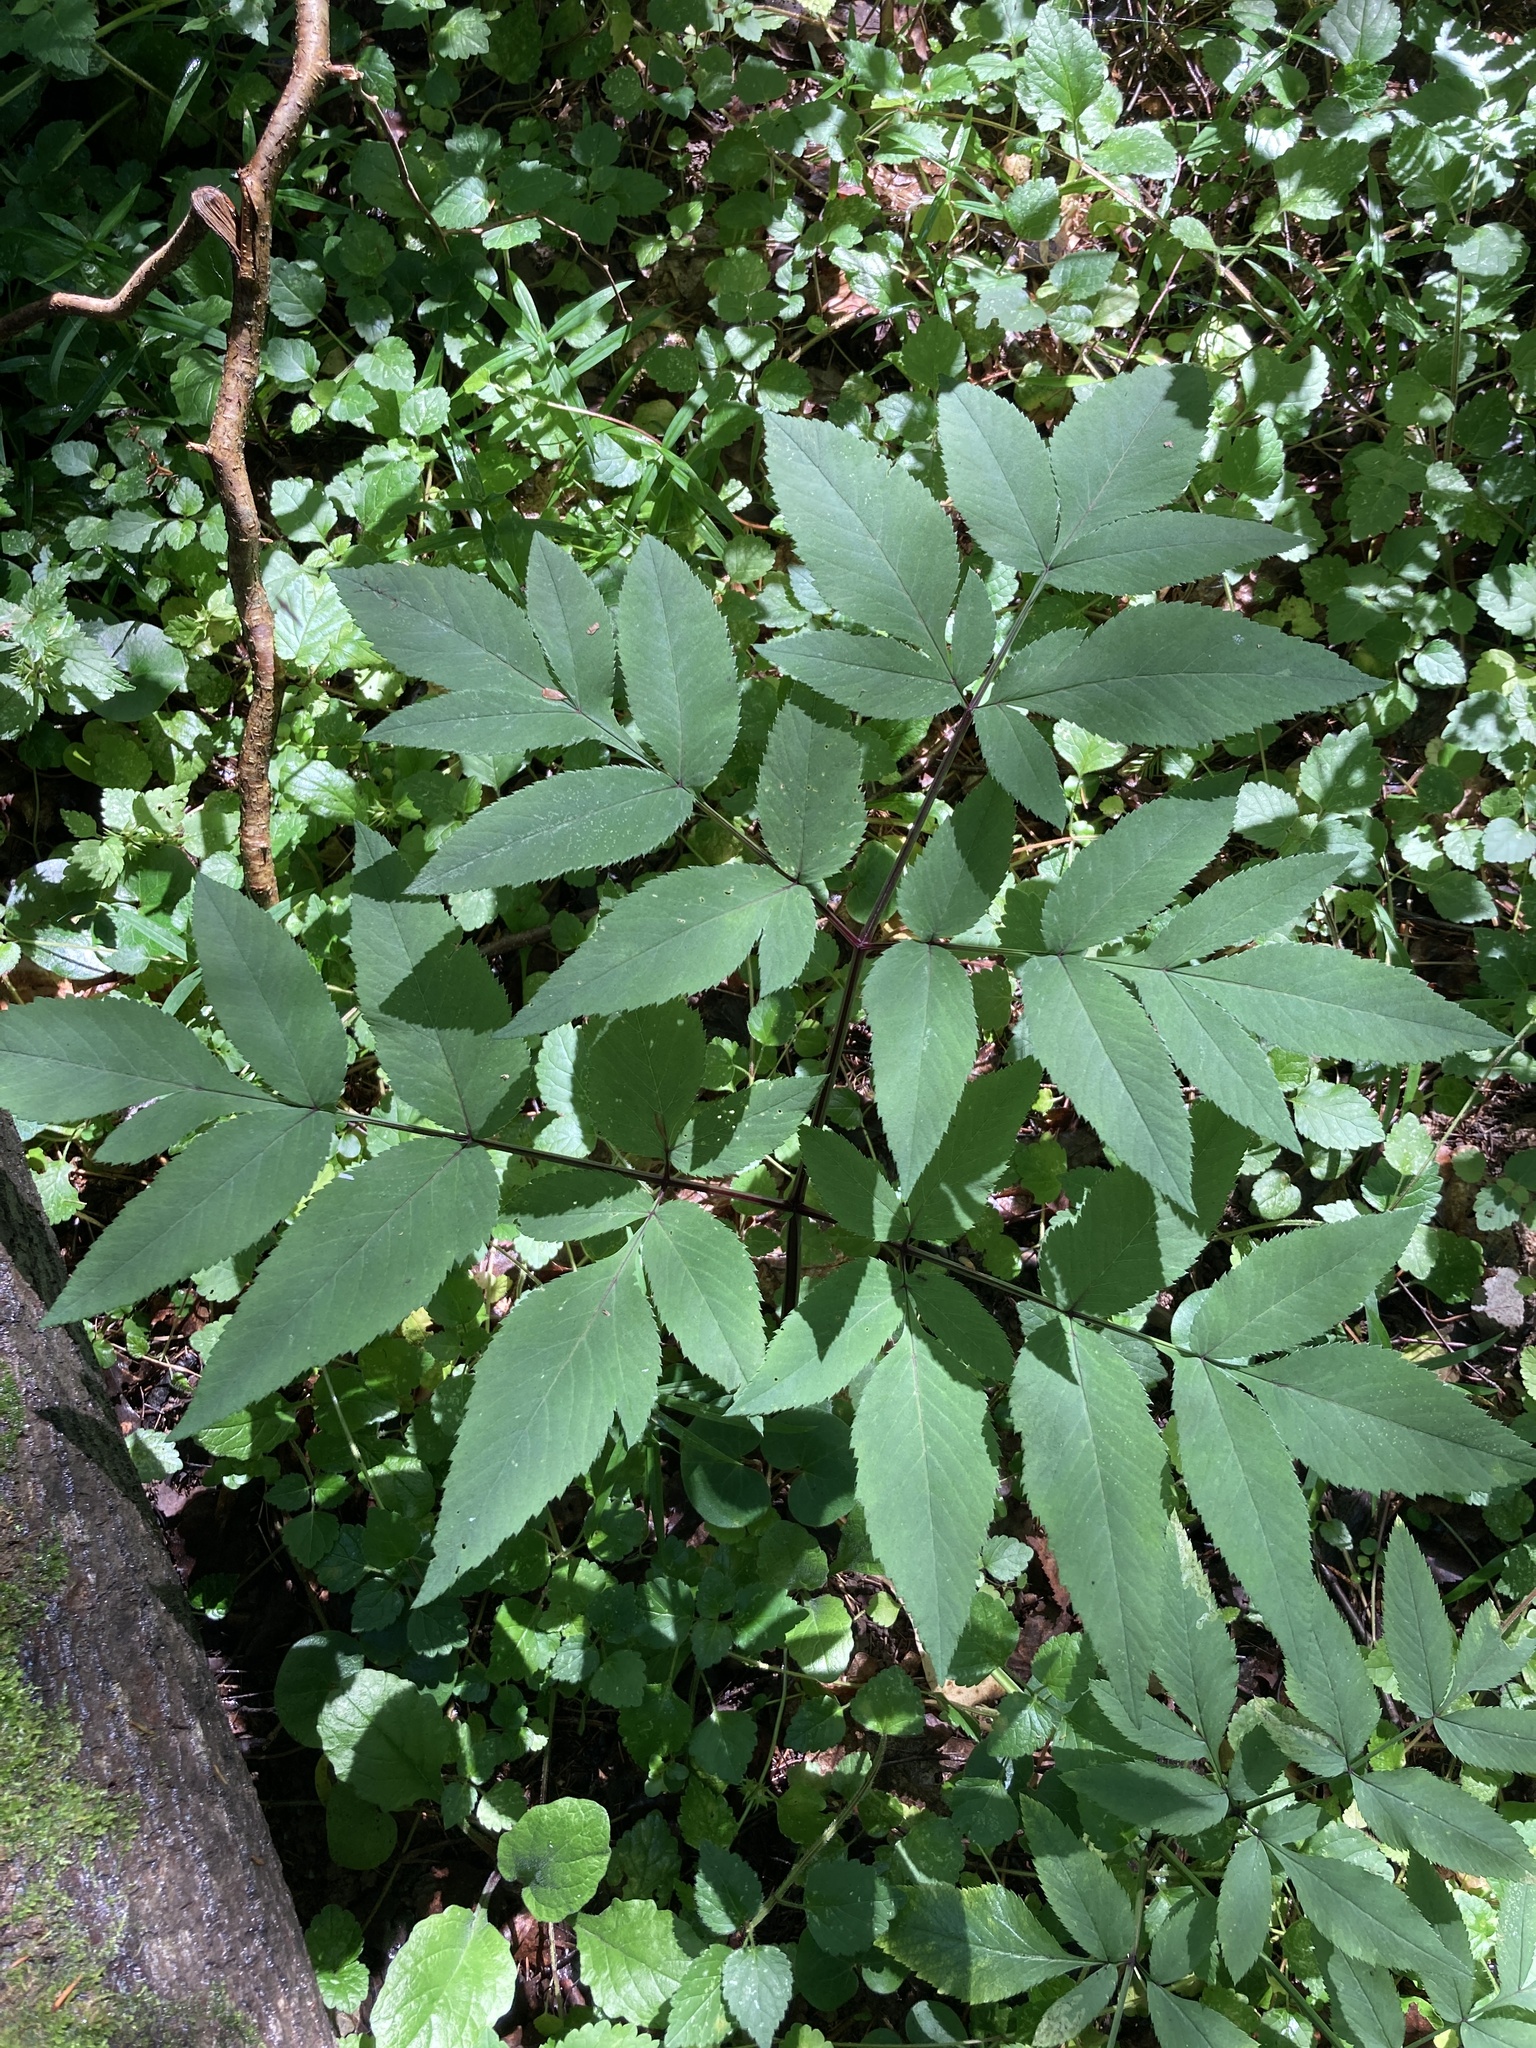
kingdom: Plantae
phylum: Tracheophyta
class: Magnoliopsida
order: Apiales
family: Apiaceae
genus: Angelica
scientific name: Angelica sylvestris
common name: Wild angelica
